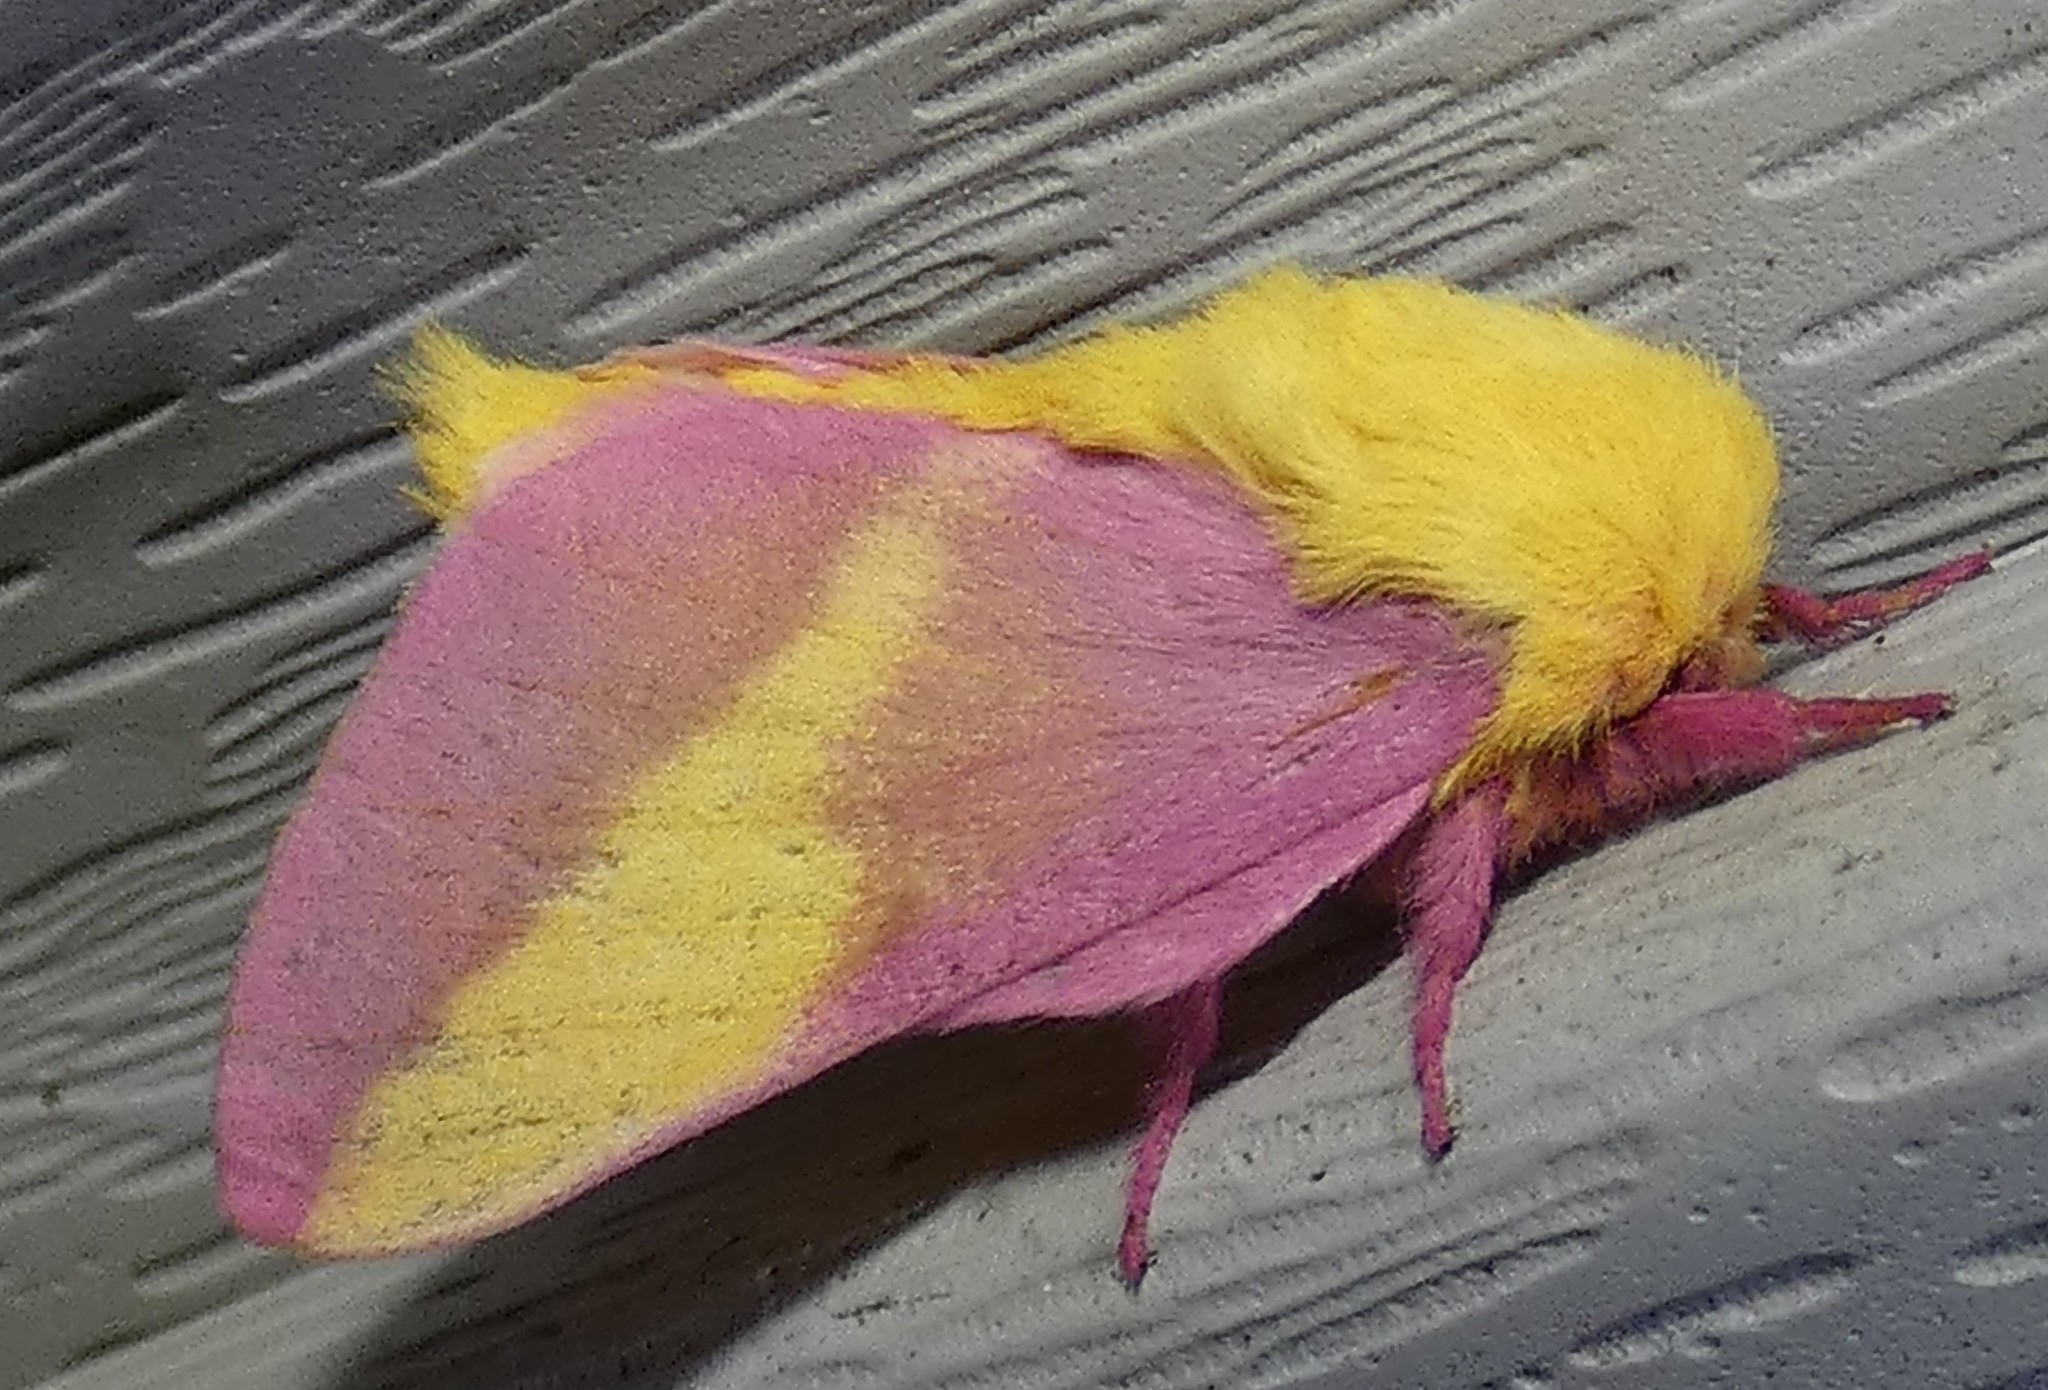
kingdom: Animalia
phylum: Arthropoda
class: Insecta
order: Lepidoptera
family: Saturniidae
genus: Dryocampa
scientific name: Dryocampa rubicunda
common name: Rosy maple moth
